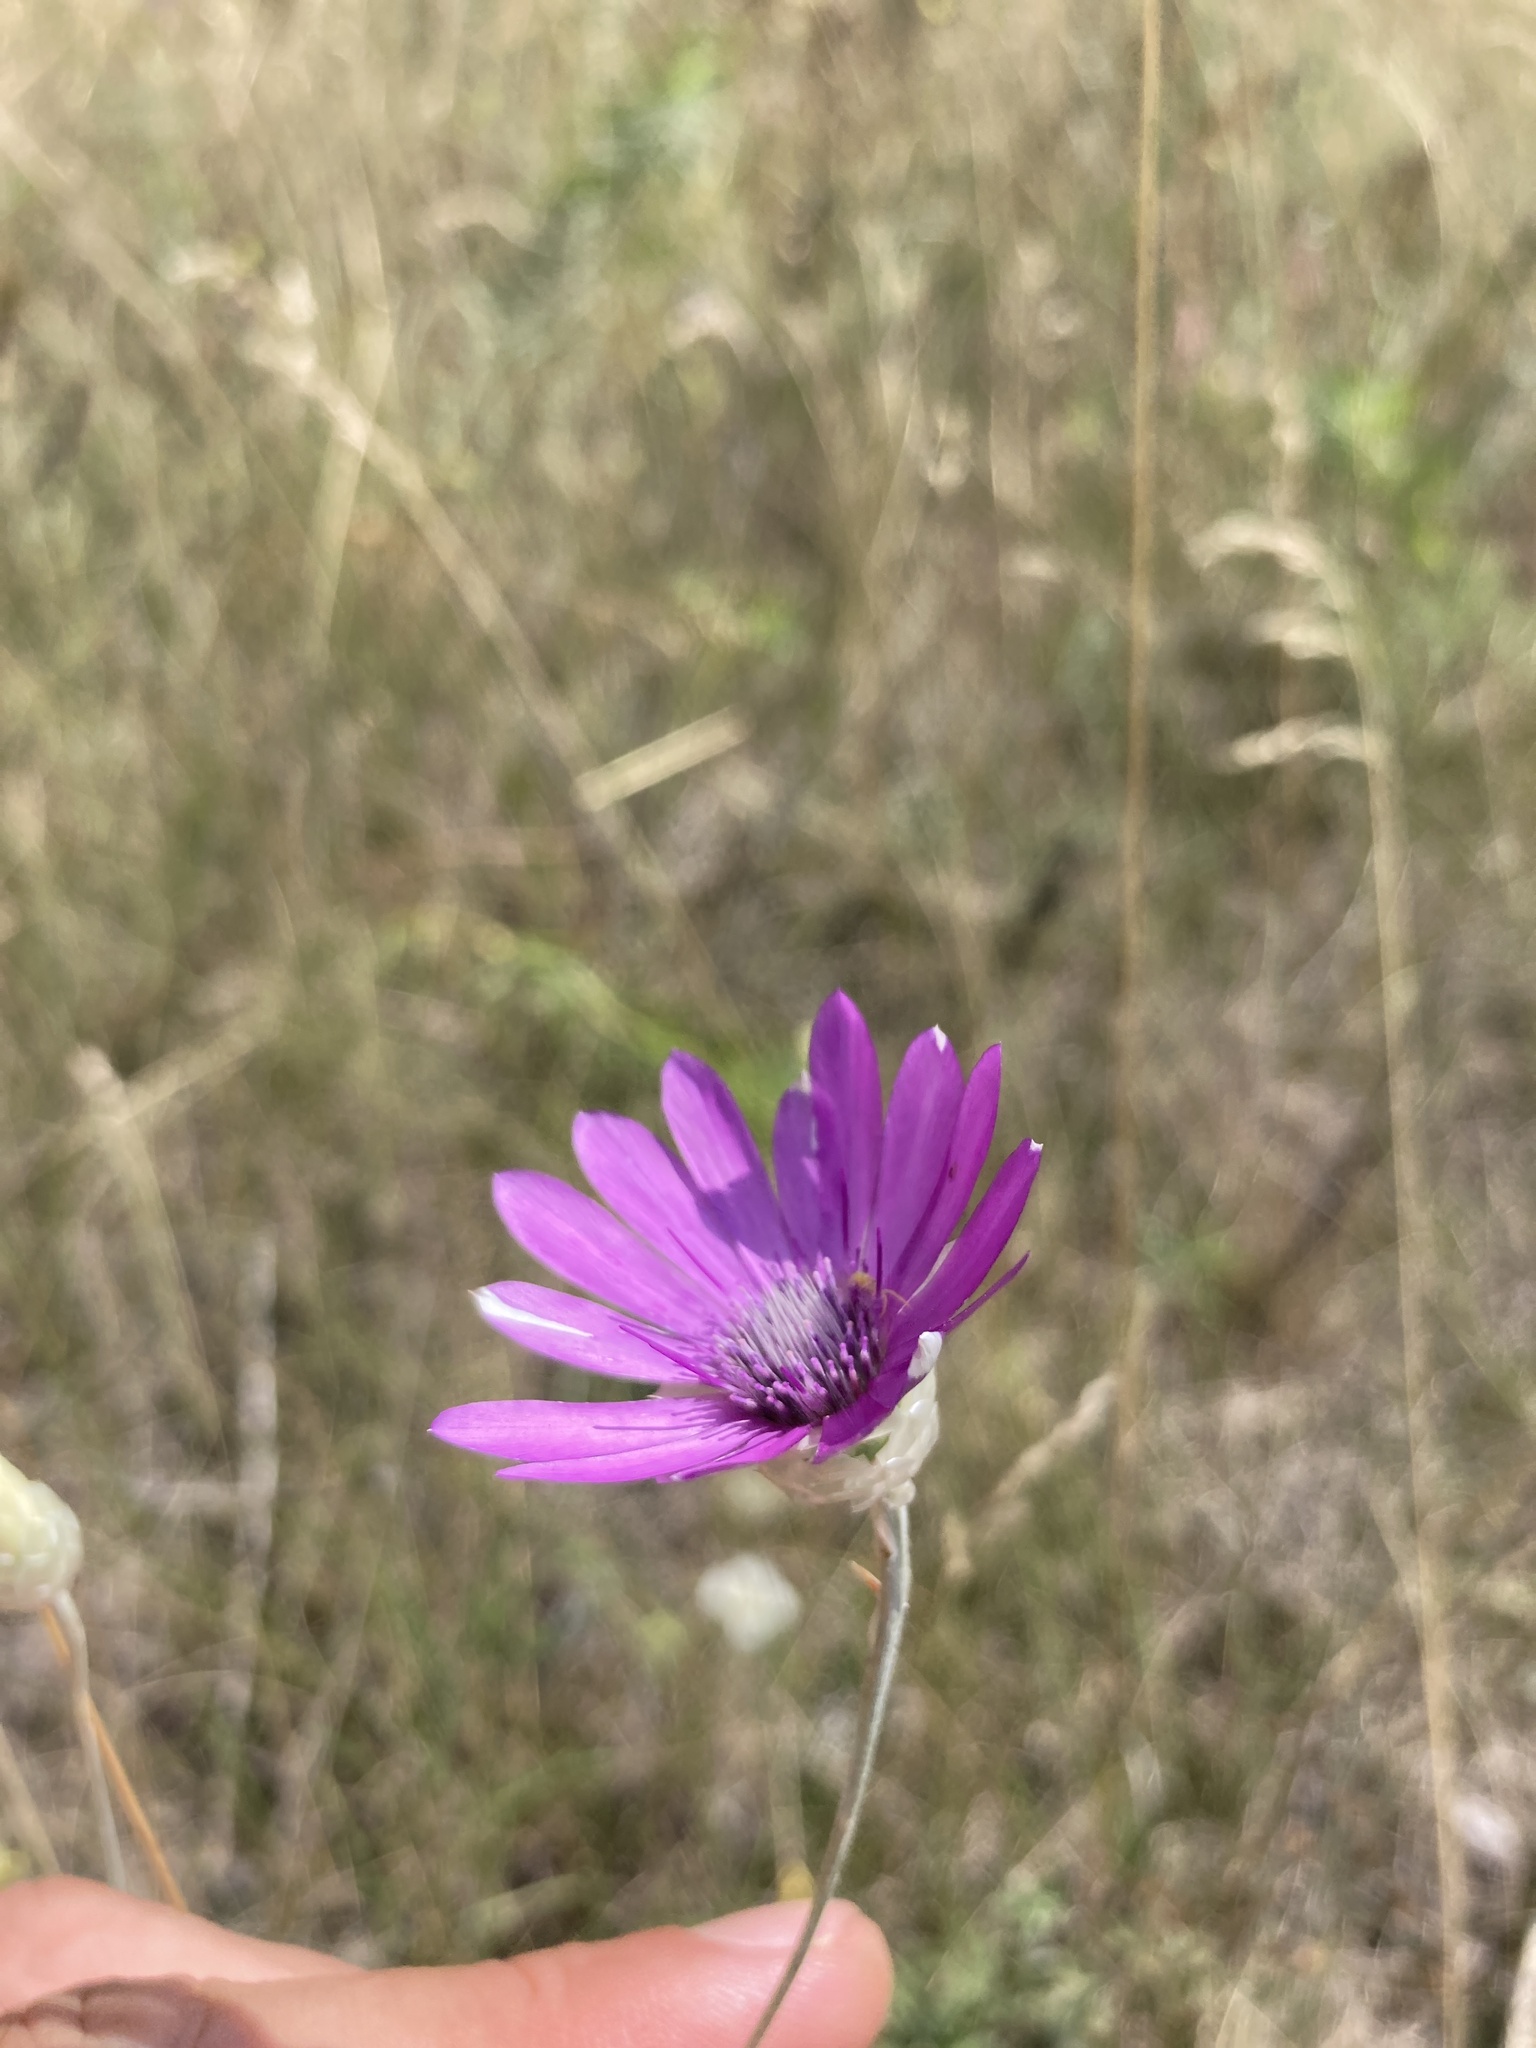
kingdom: Plantae
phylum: Tracheophyta
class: Magnoliopsida
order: Asterales
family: Asteraceae
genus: Xeranthemum
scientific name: Xeranthemum annuum
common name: Immortelle
